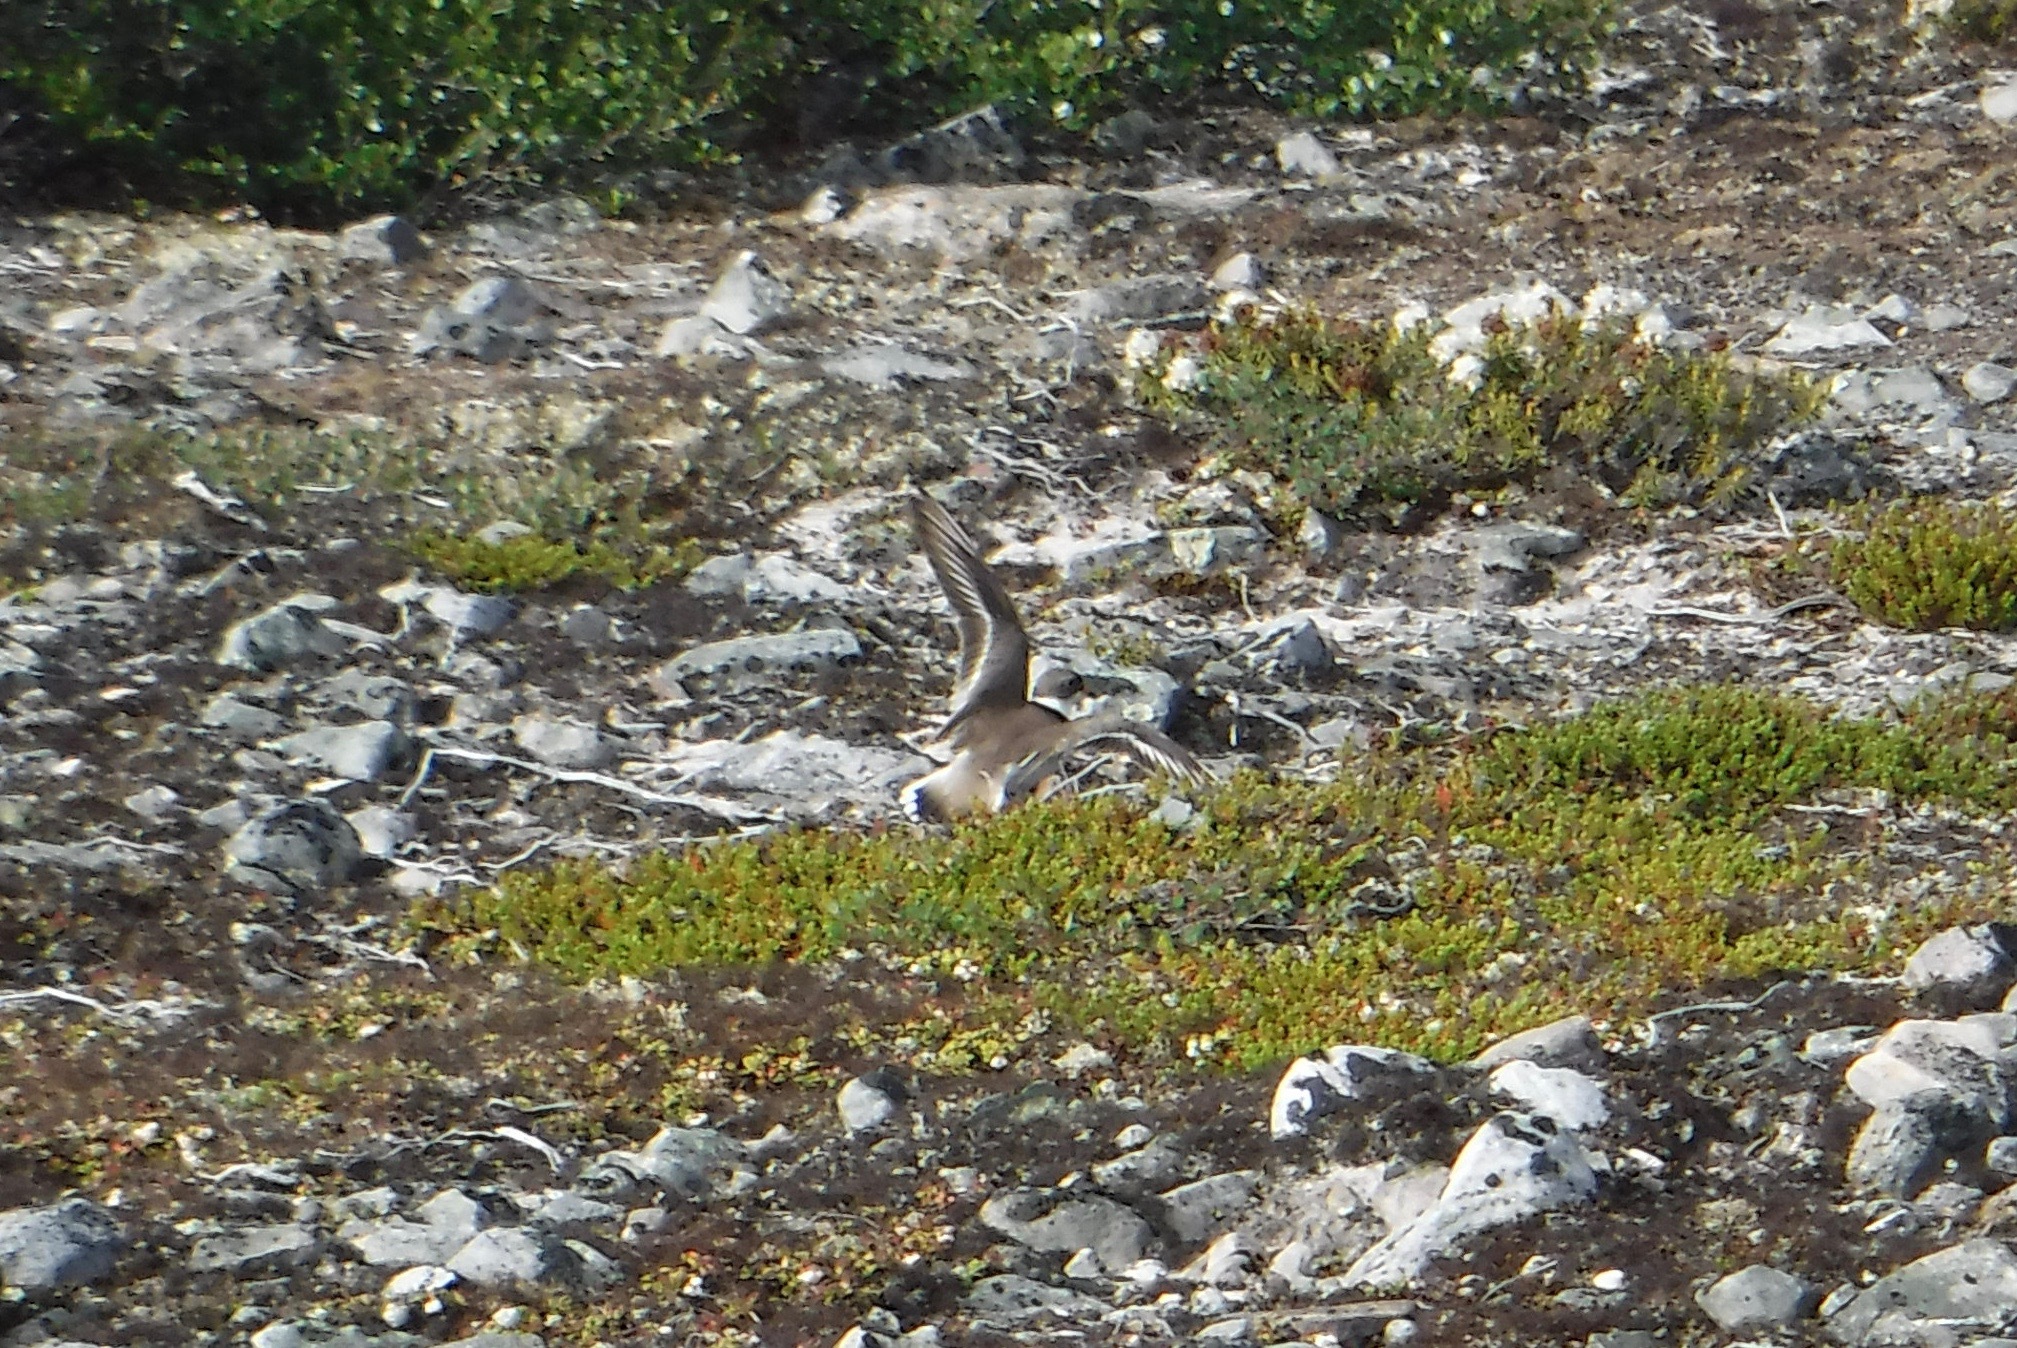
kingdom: Animalia
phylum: Chordata
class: Aves
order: Charadriiformes
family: Charadriidae
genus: Charadrius
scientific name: Charadrius semipalmatus
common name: Semipalmated plover
